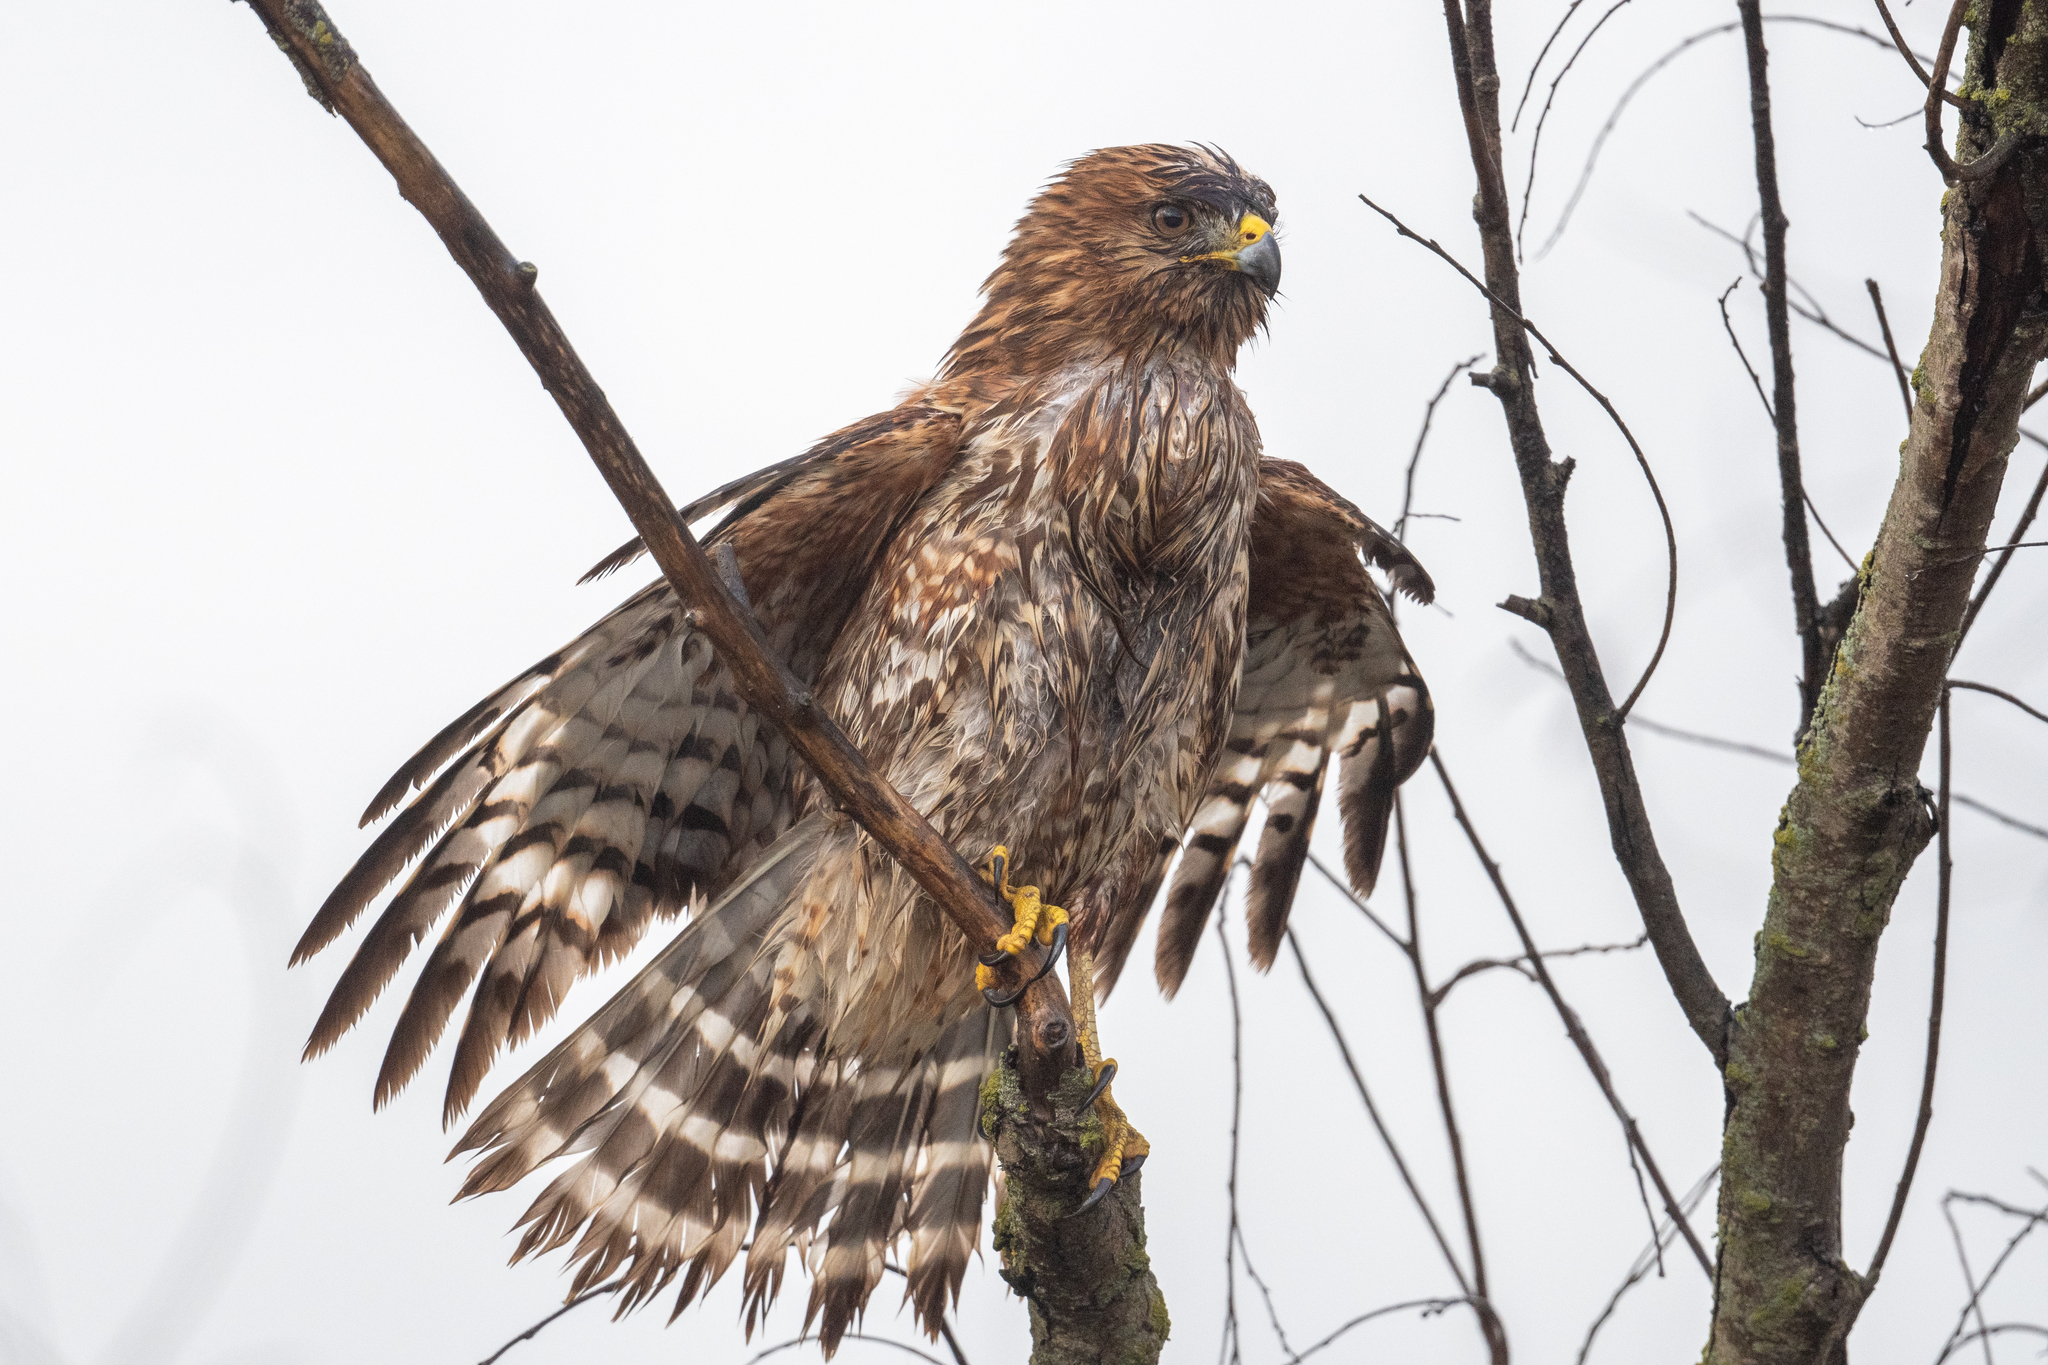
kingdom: Animalia
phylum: Chordata
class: Aves
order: Accipitriformes
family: Accipitridae
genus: Buteo
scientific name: Buteo lineatus
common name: Red-shouldered hawk
